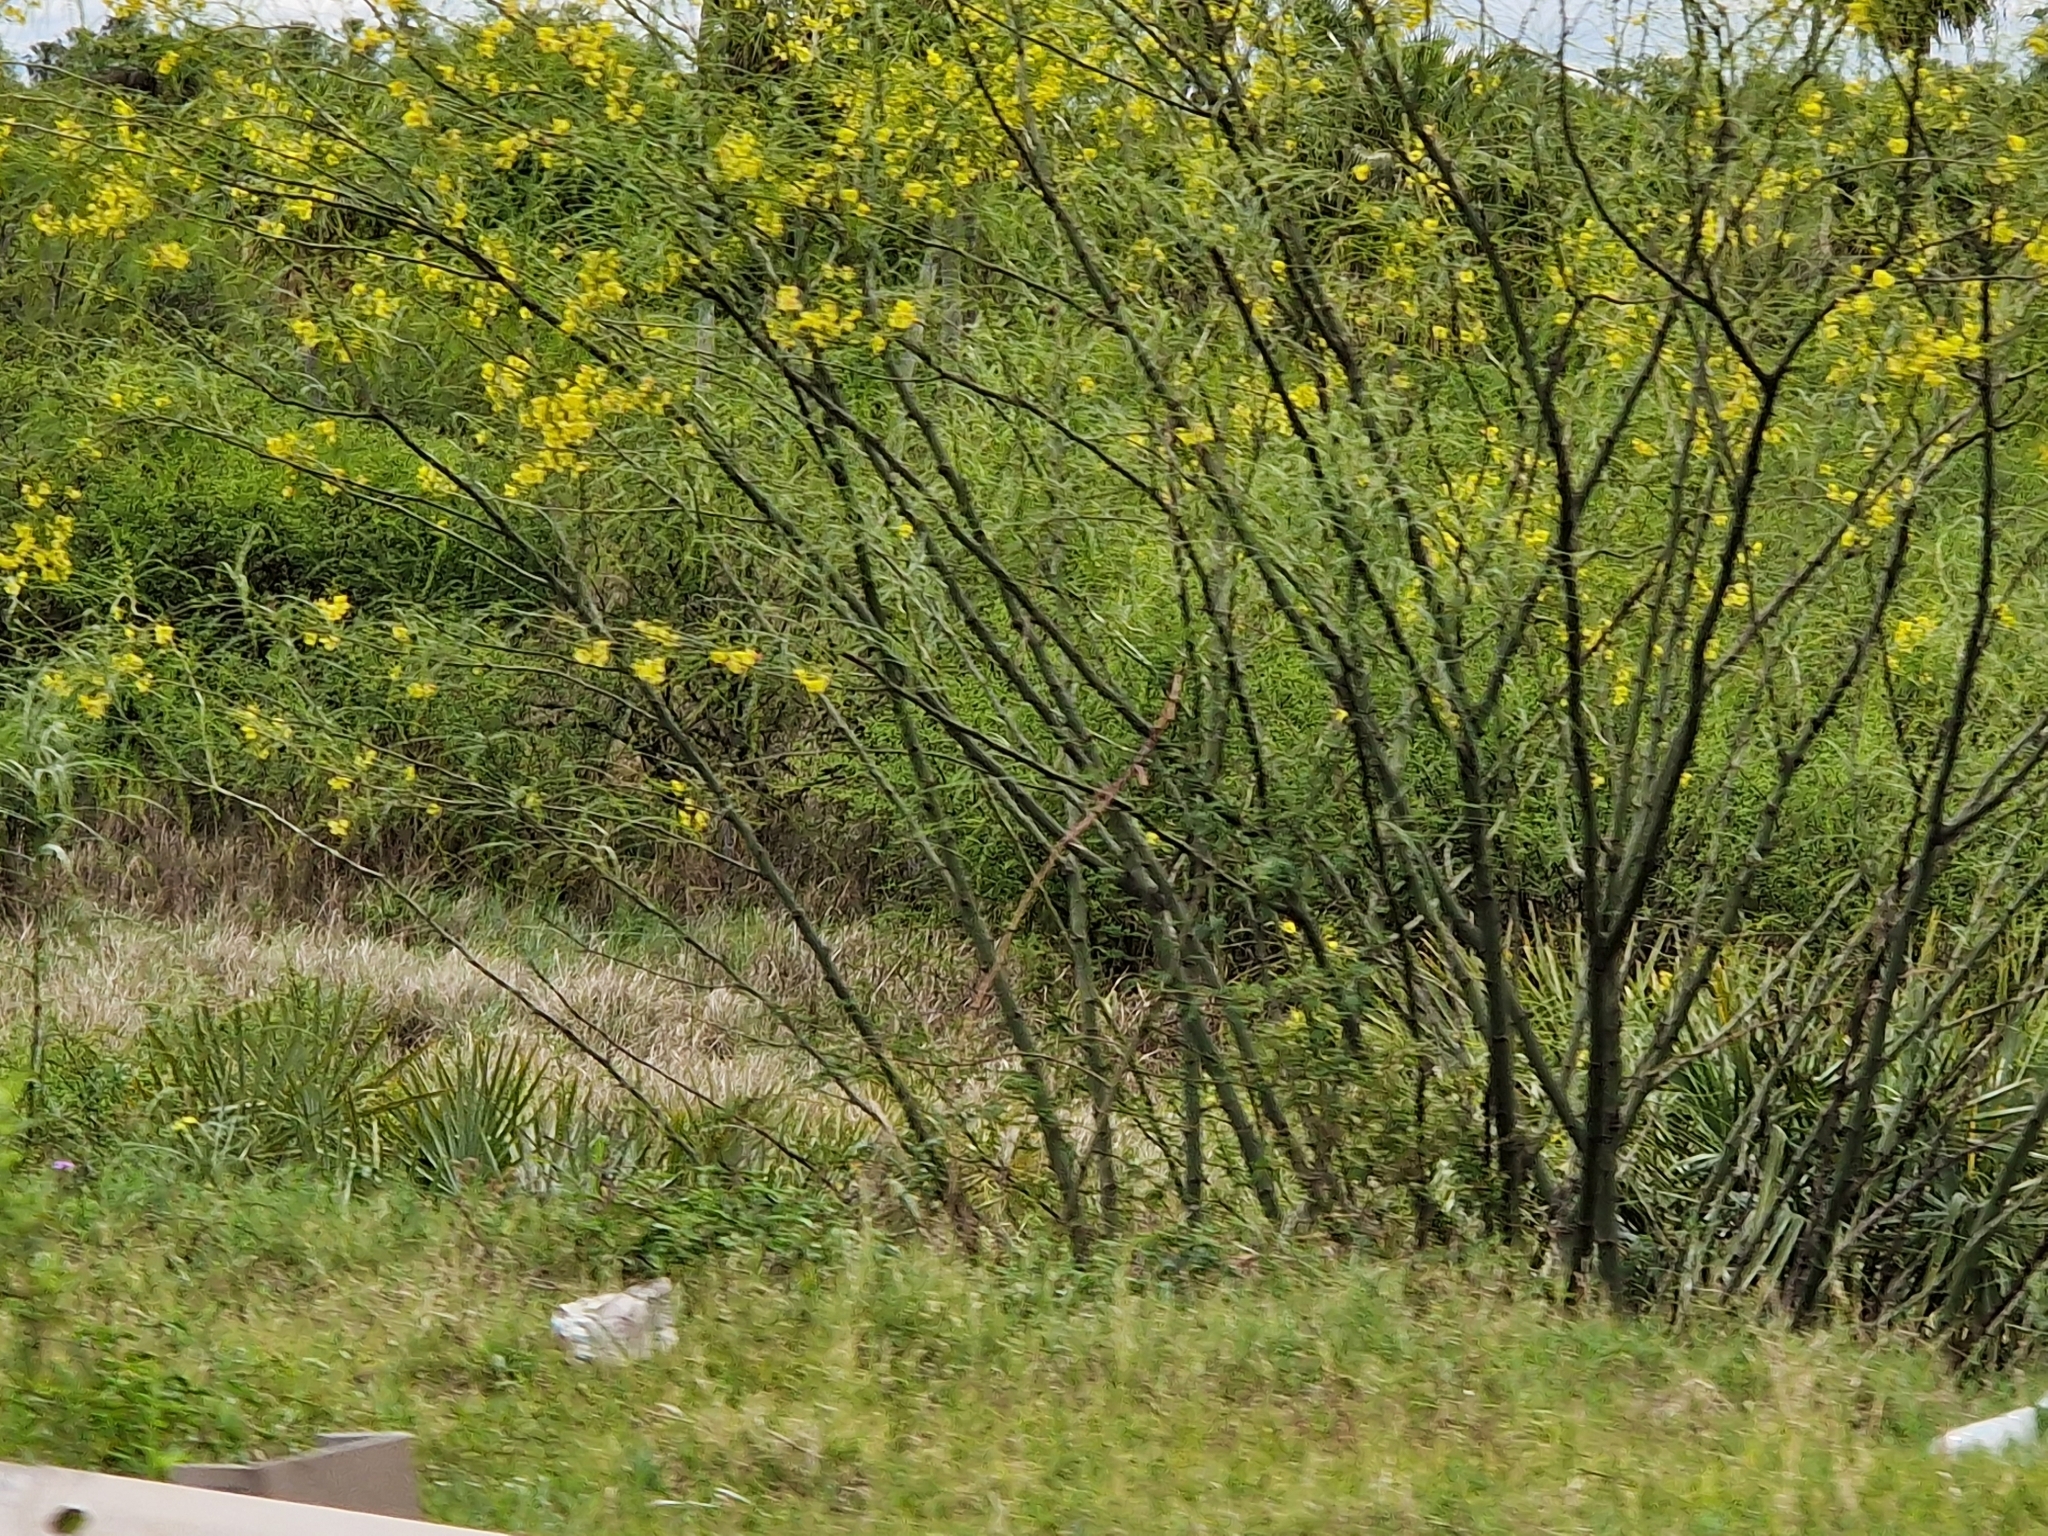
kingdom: Plantae
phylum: Tracheophyta
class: Magnoliopsida
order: Fabales
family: Fabaceae
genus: Parkinsonia
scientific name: Parkinsonia aculeata
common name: Jerusalem thorn
